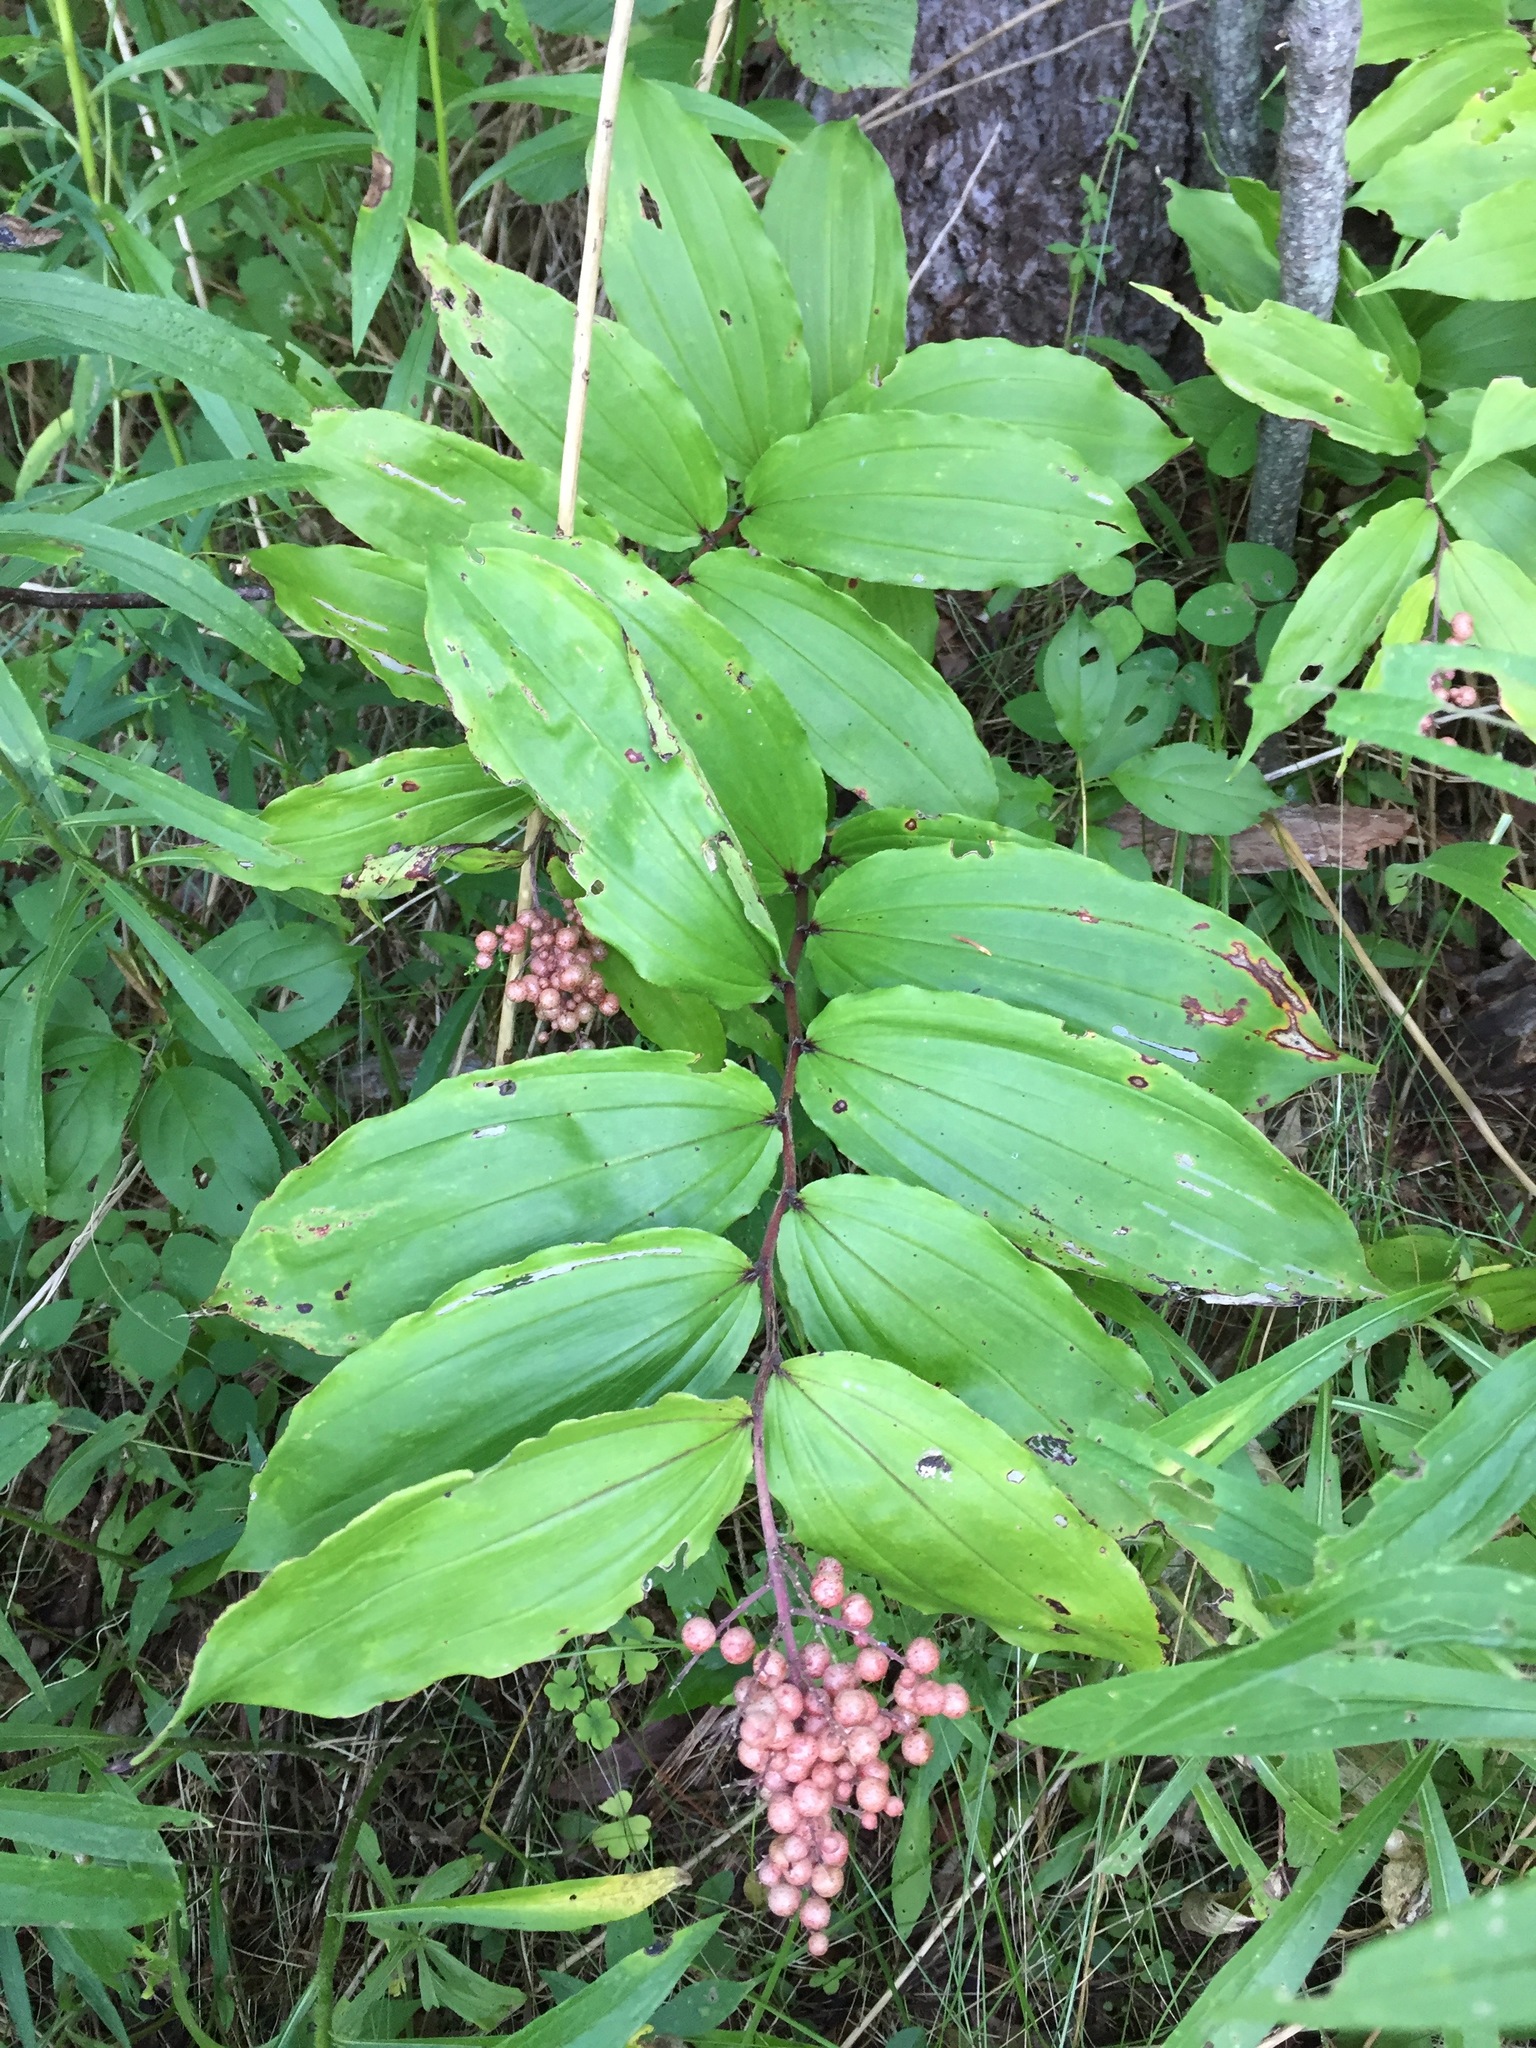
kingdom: Plantae
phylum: Tracheophyta
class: Liliopsida
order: Asparagales
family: Asparagaceae
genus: Maianthemum
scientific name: Maianthemum racemosum
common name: False spikenard
